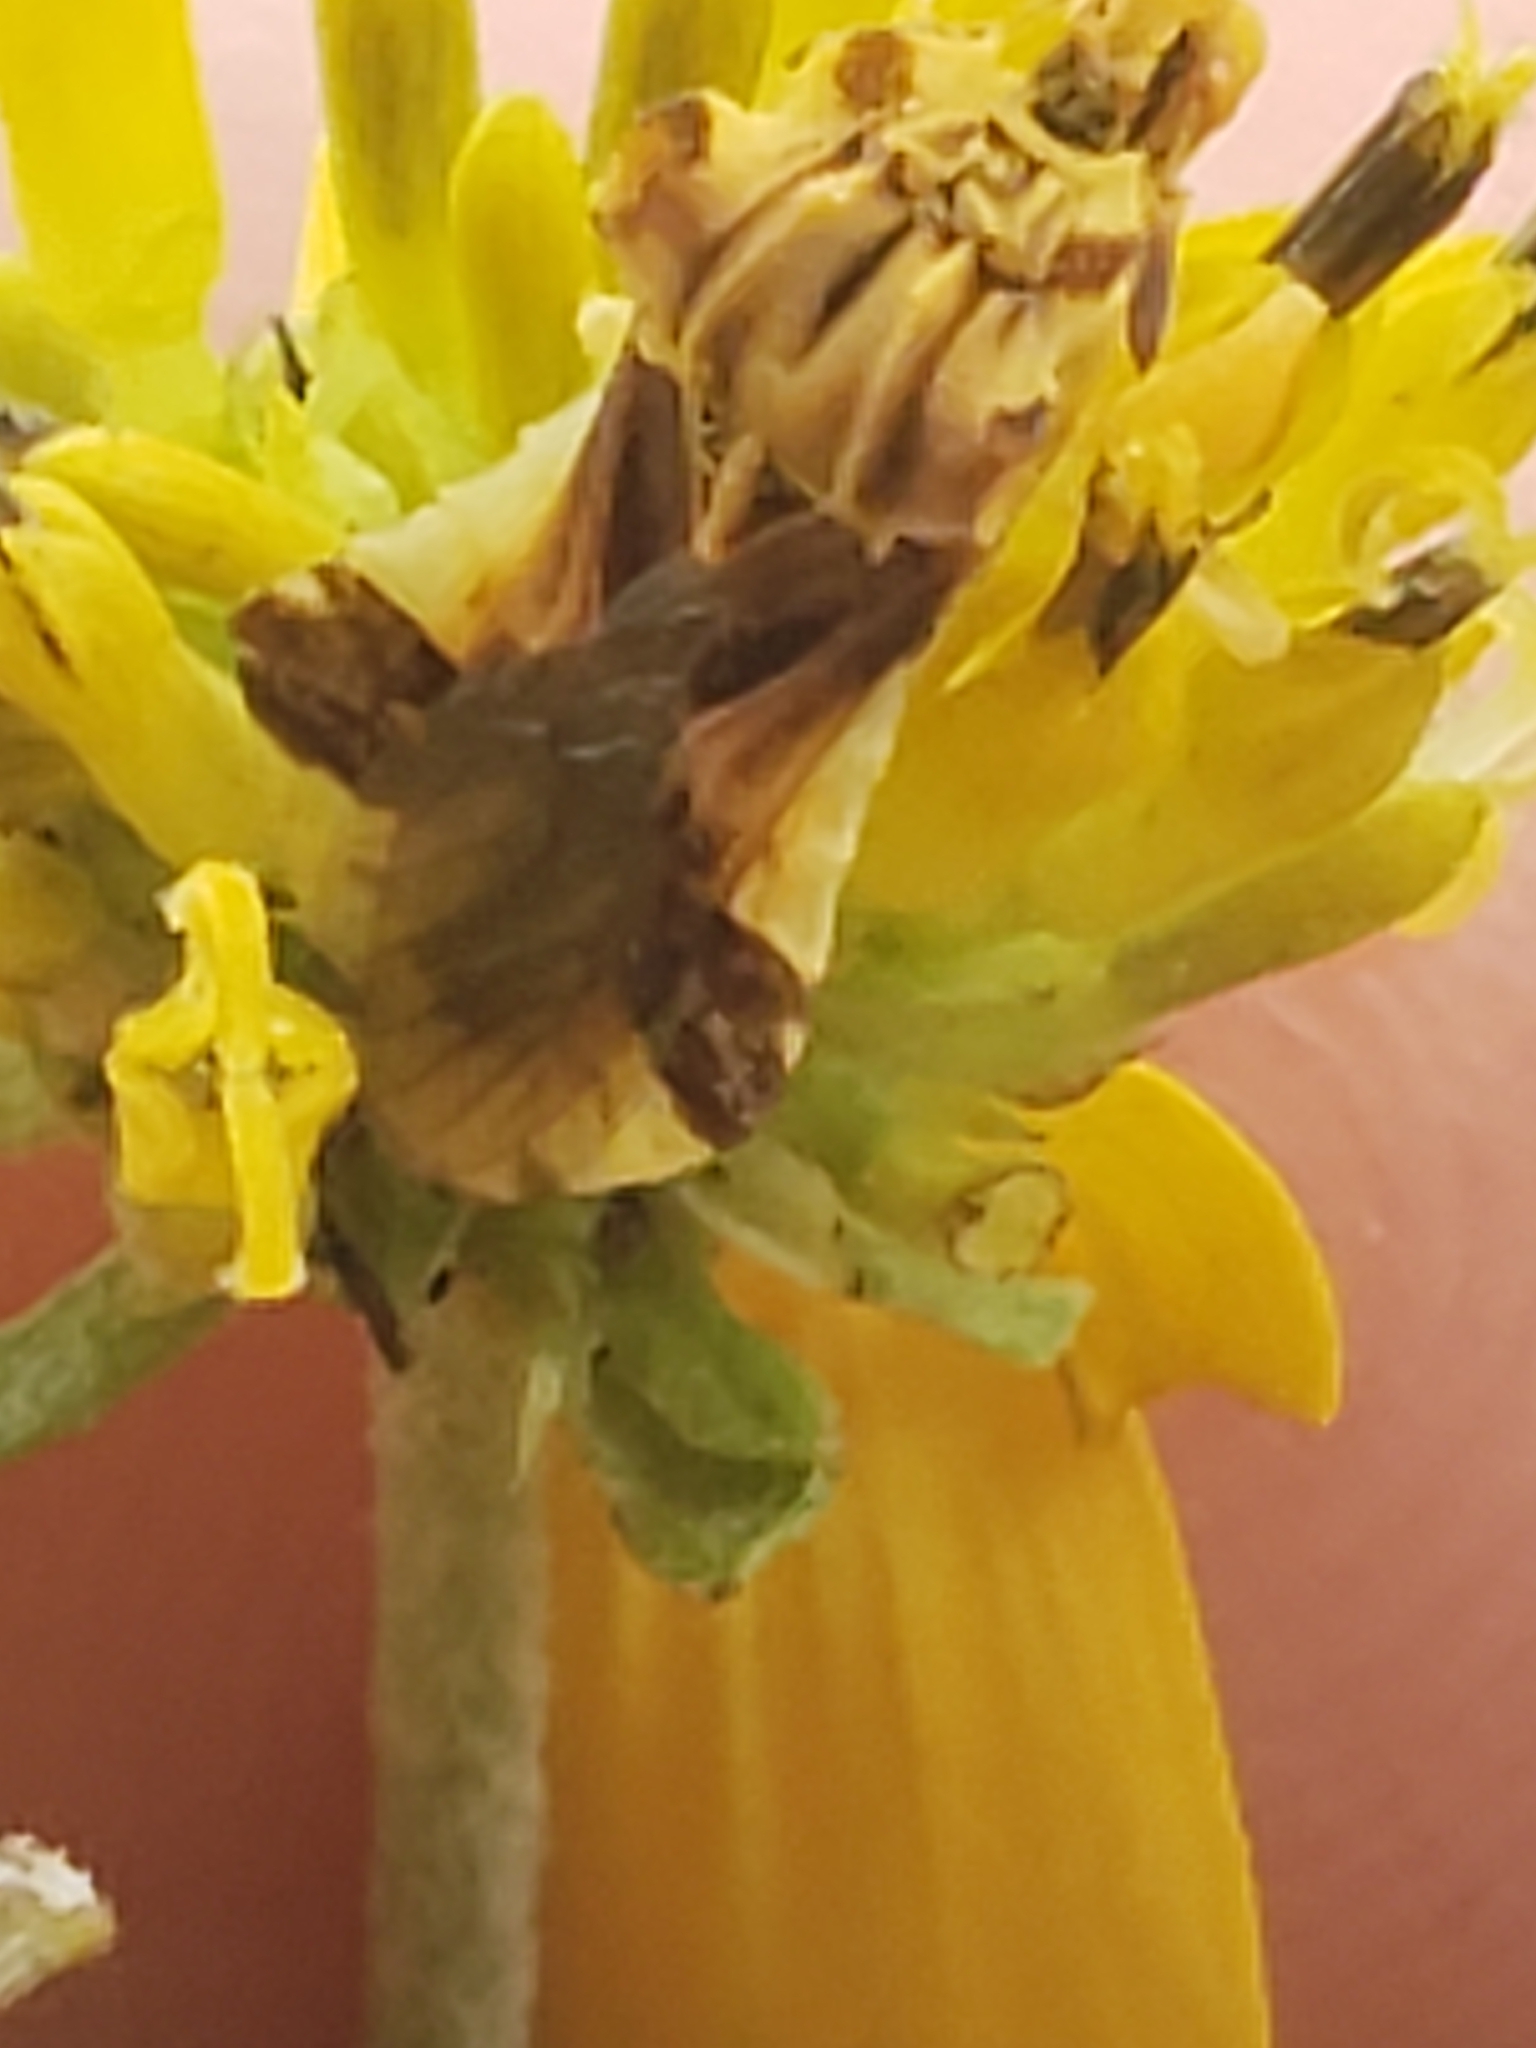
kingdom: Animalia
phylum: Arthropoda
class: Insecta
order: Hemiptera
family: Reduviidae
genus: Phymata
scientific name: Phymata fasciata
